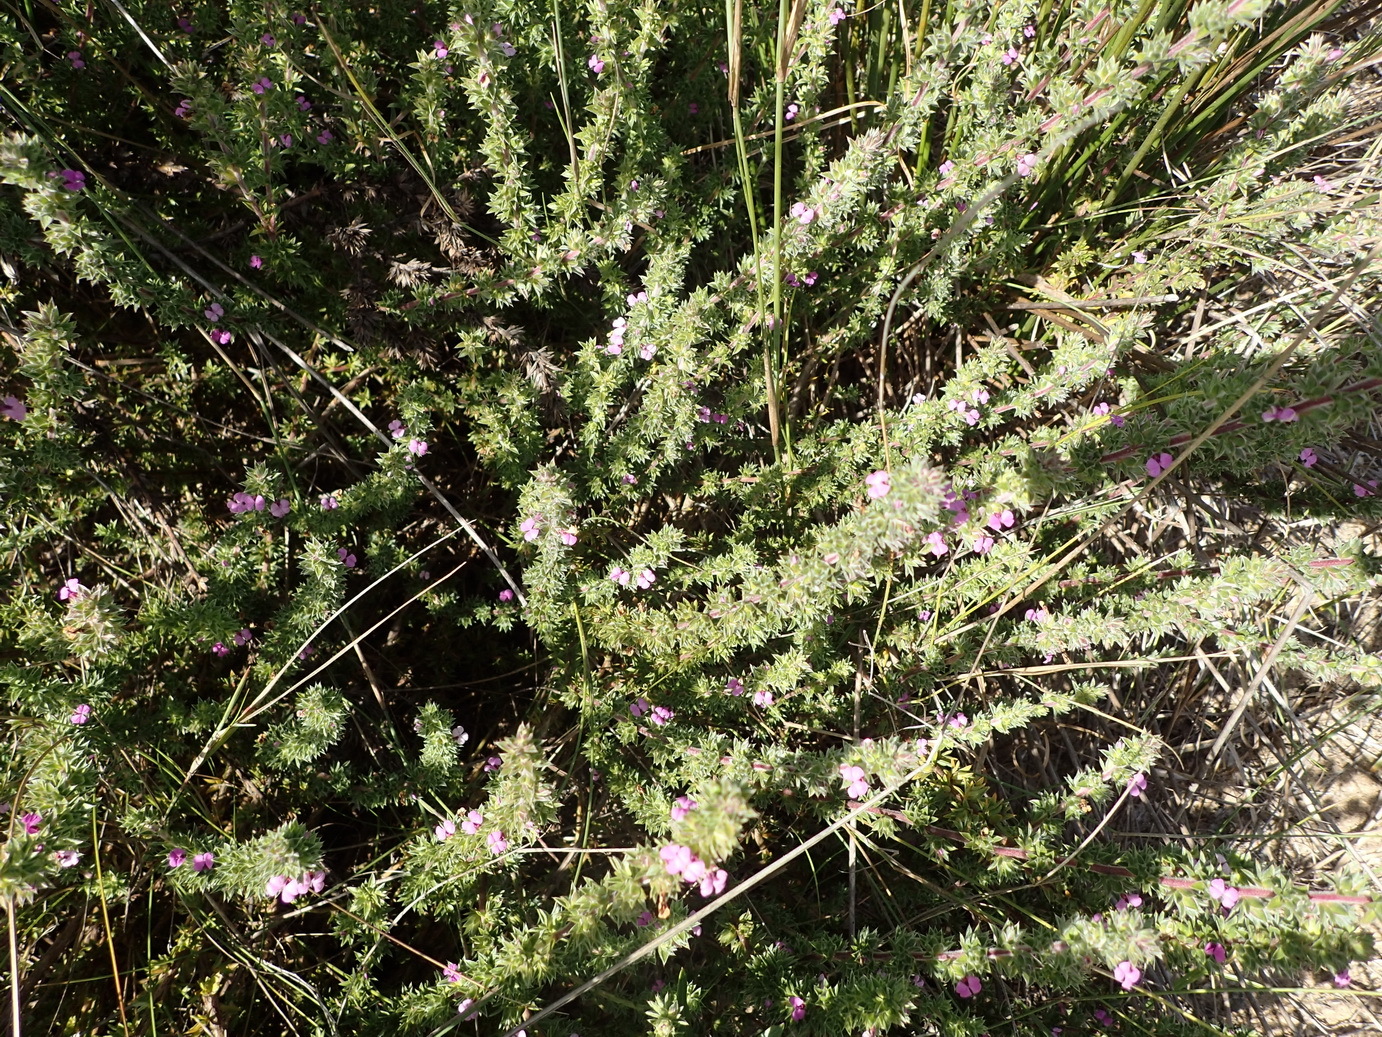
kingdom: Plantae
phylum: Tracheophyta
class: Magnoliopsida
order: Fabales
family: Polygalaceae
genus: Muraltia
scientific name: Muraltia squarrosa
